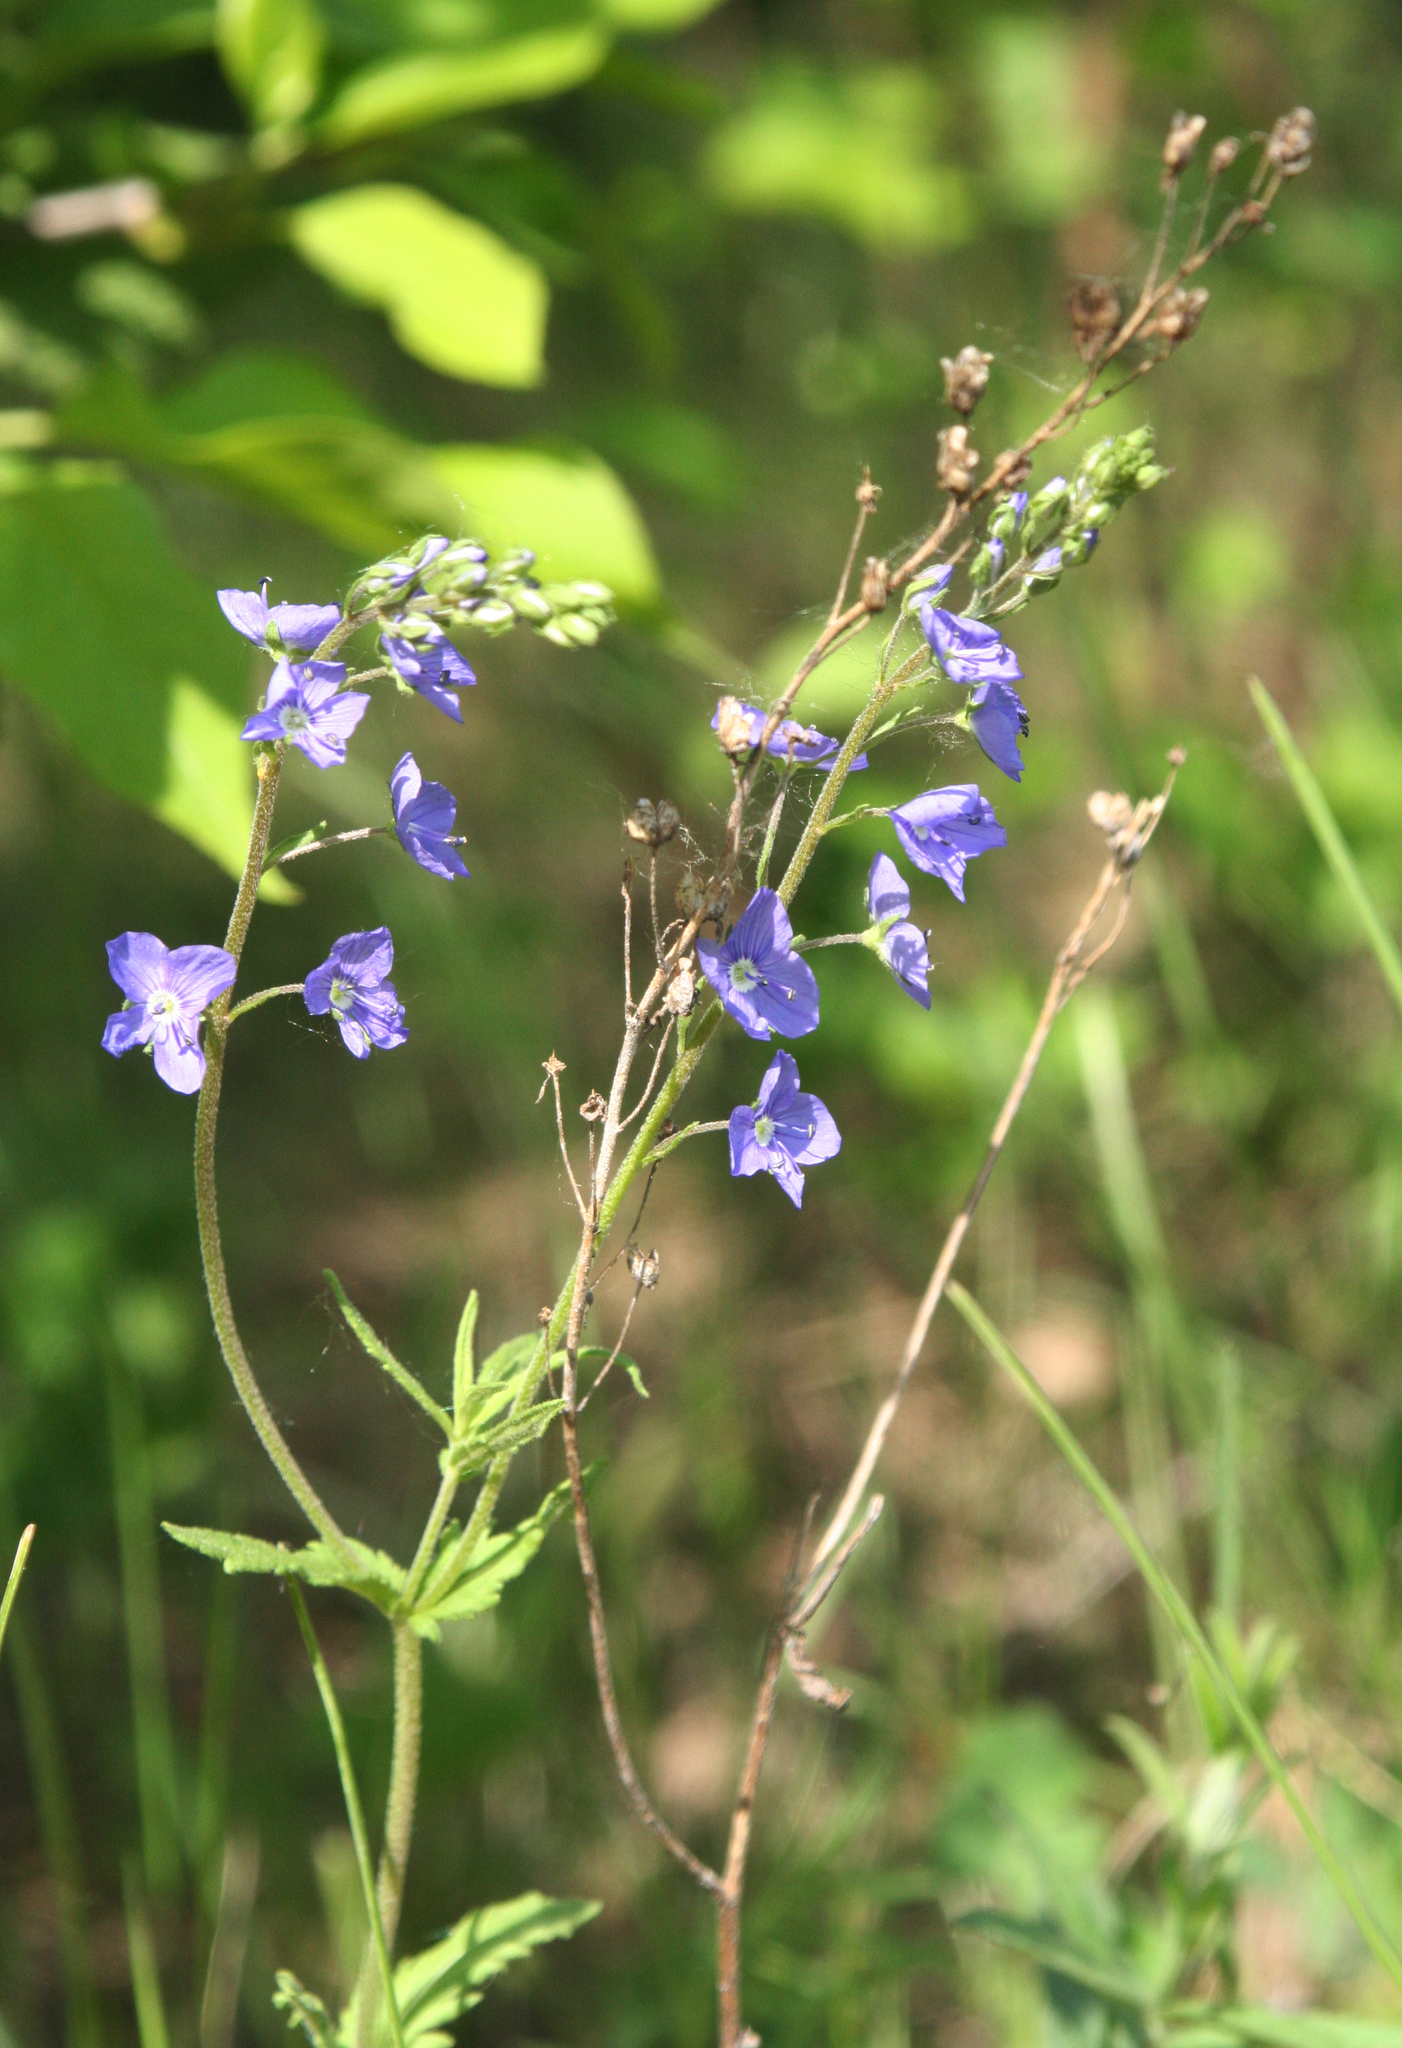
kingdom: Plantae
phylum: Tracheophyta
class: Magnoliopsida
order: Lamiales
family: Plantaginaceae
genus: Veronica
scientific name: Veronica krylovii
